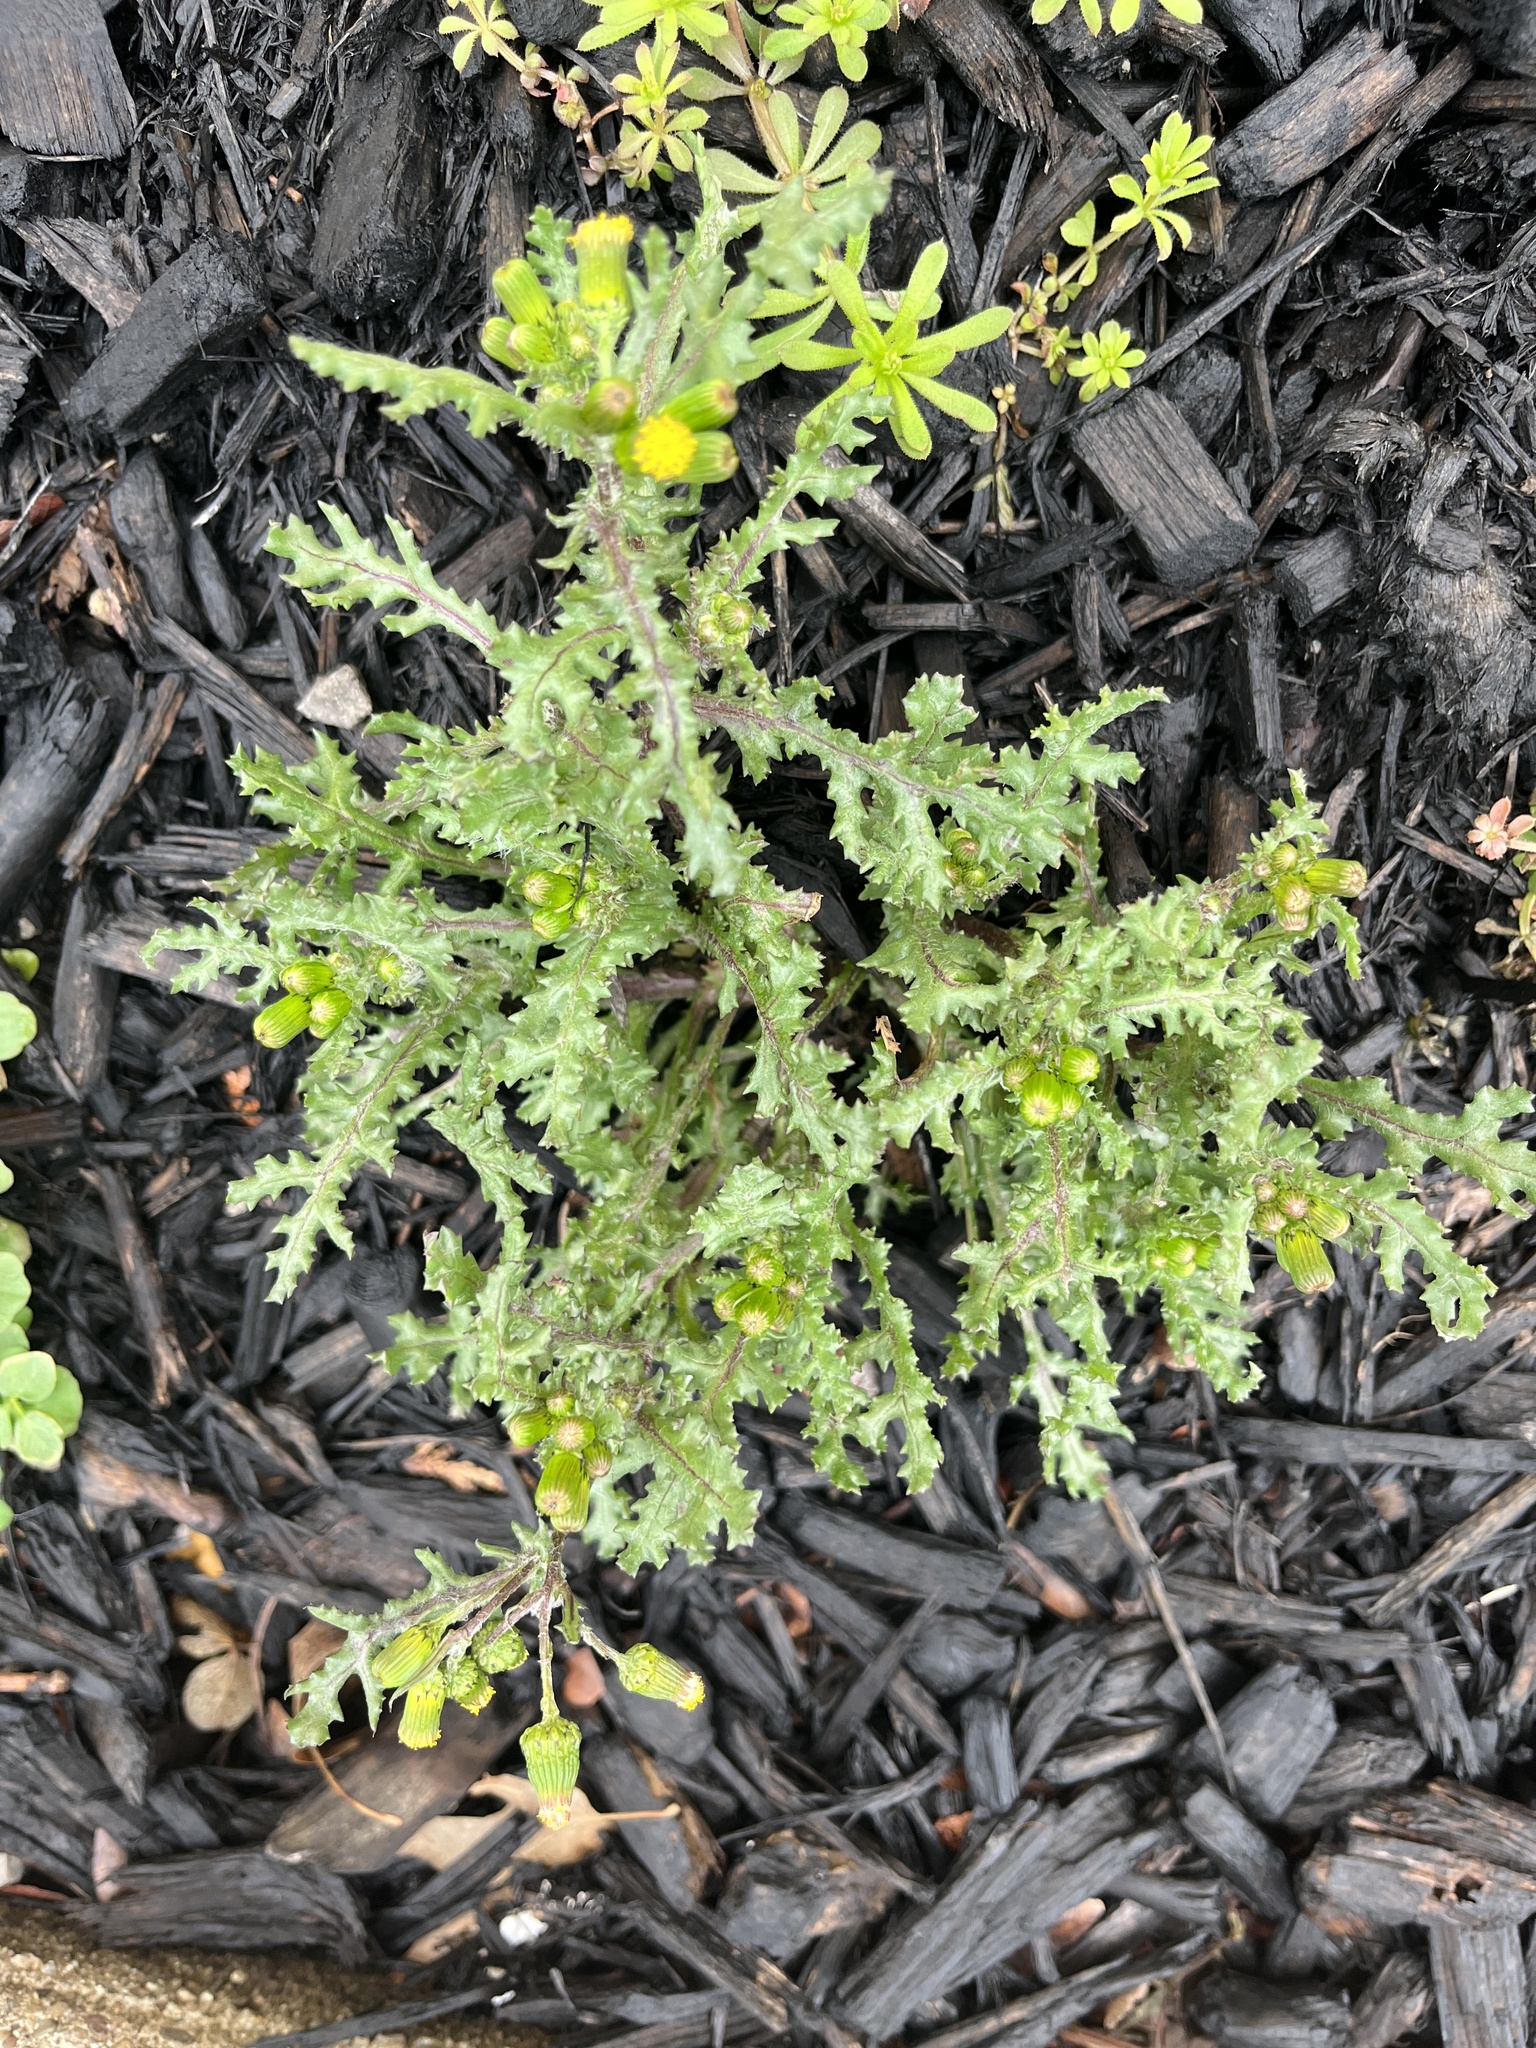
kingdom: Plantae
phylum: Tracheophyta
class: Magnoliopsida
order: Asterales
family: Asteraceae
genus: Senecio
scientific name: Senecio vulgaris
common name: Old-man-in-the-spring
